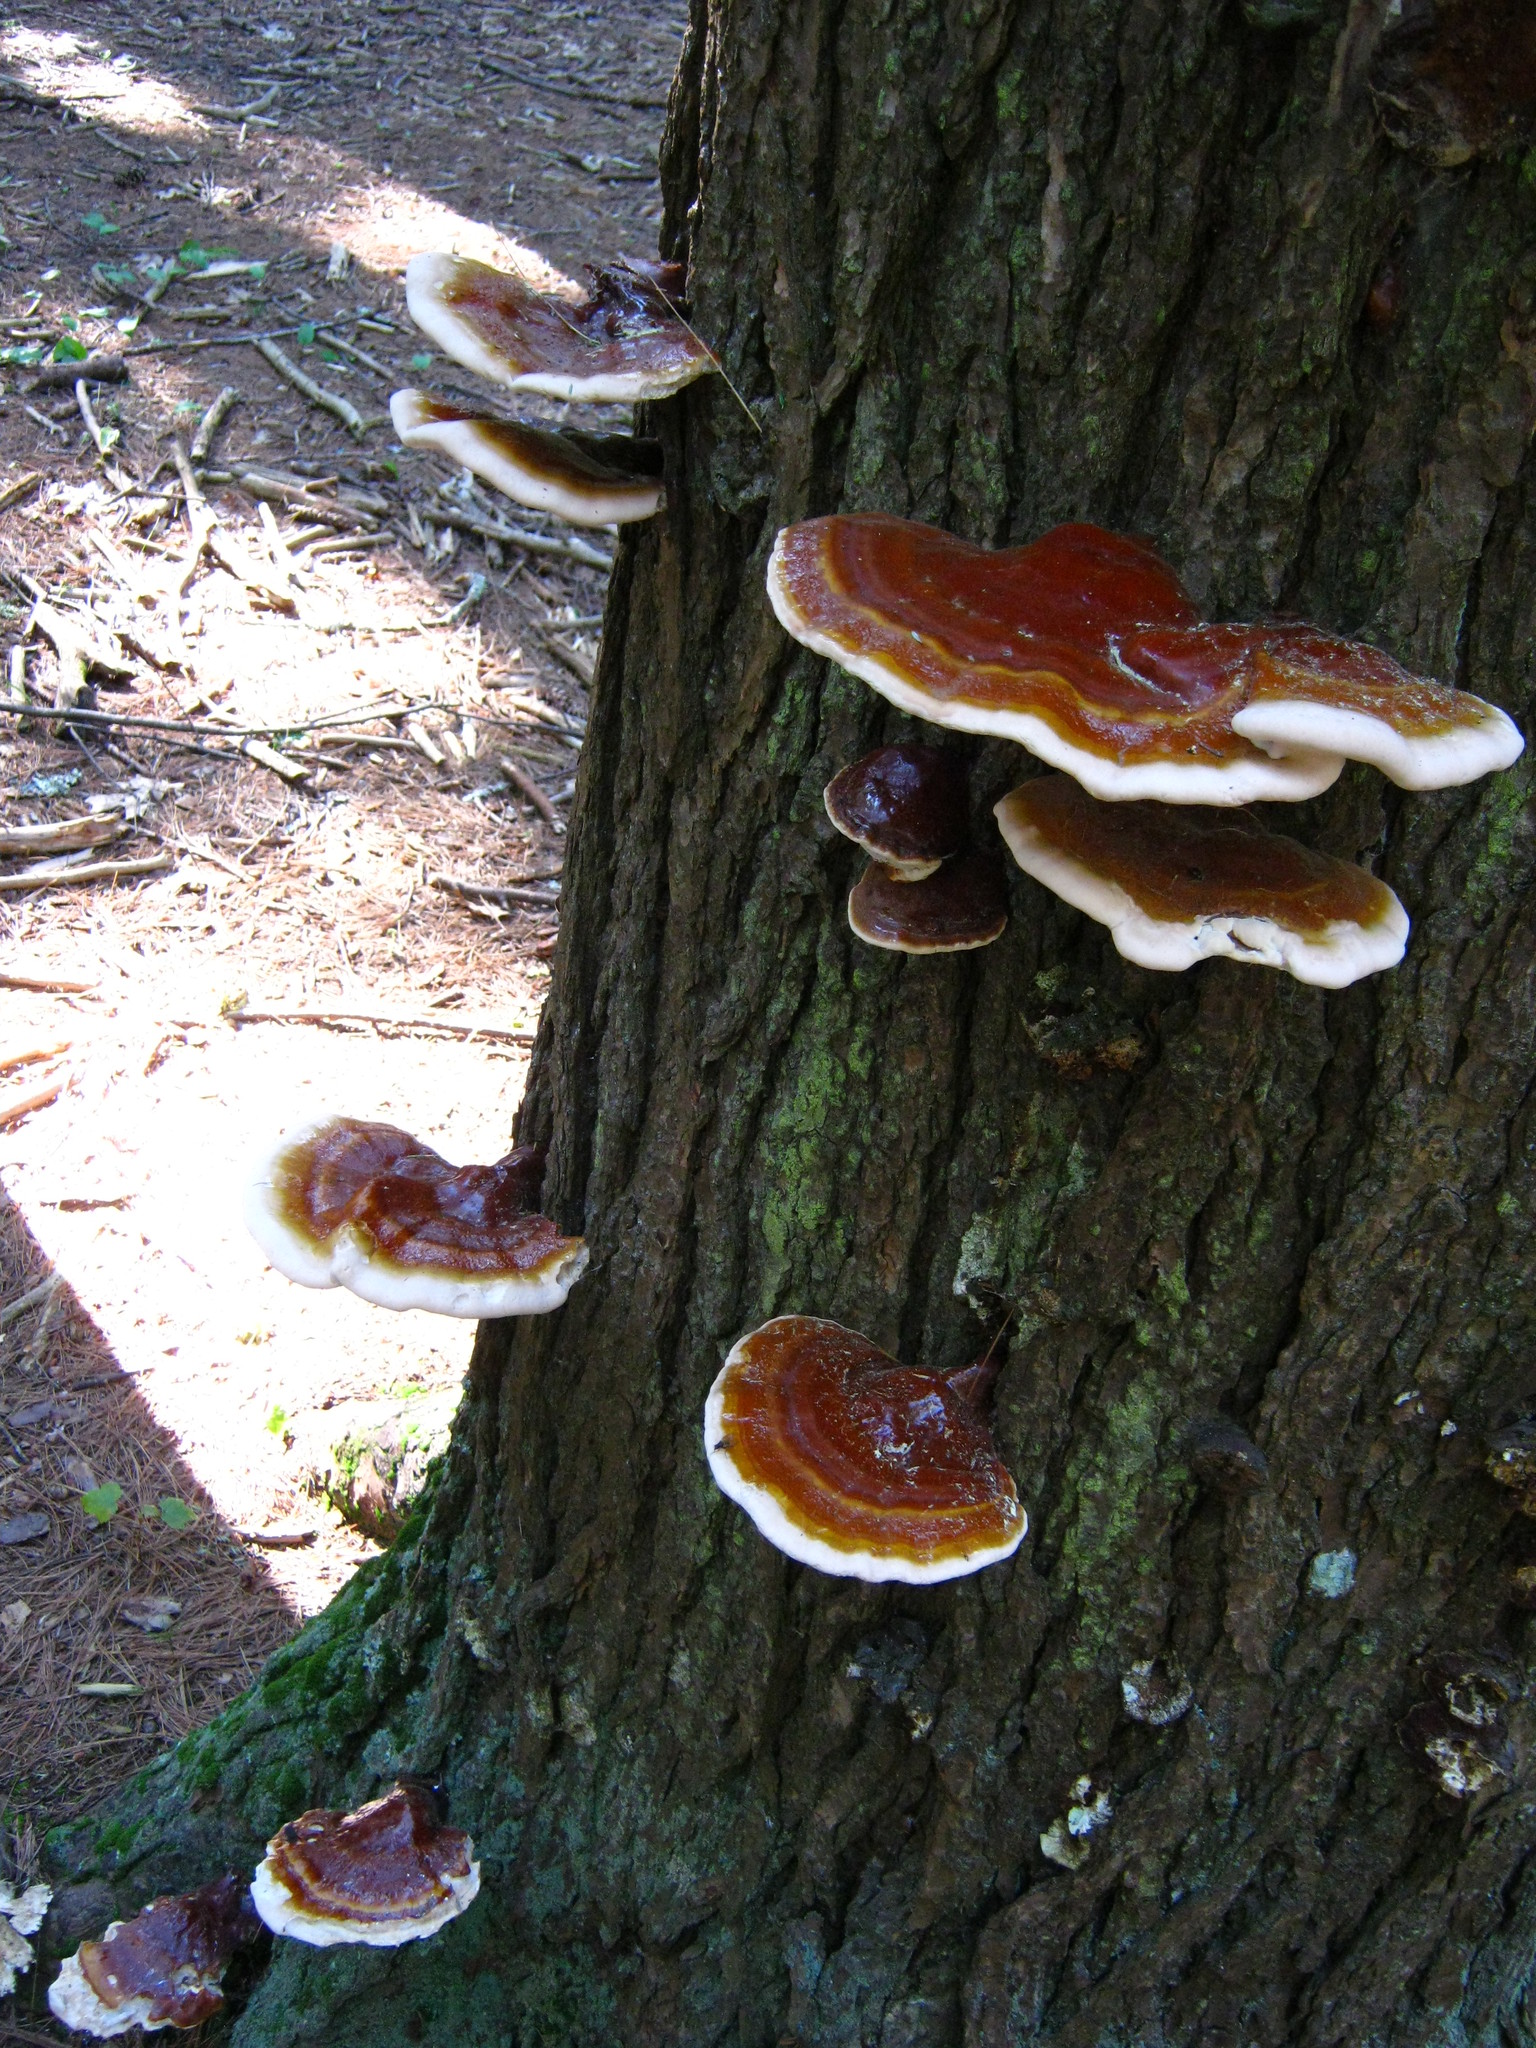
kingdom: Fungi
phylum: Basidiomycota
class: Agaricomycetes
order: Polyporales
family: Polyporaceae
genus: Ganoderma
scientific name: Ganoderma tsugae
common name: Hemlock varnish shelf
